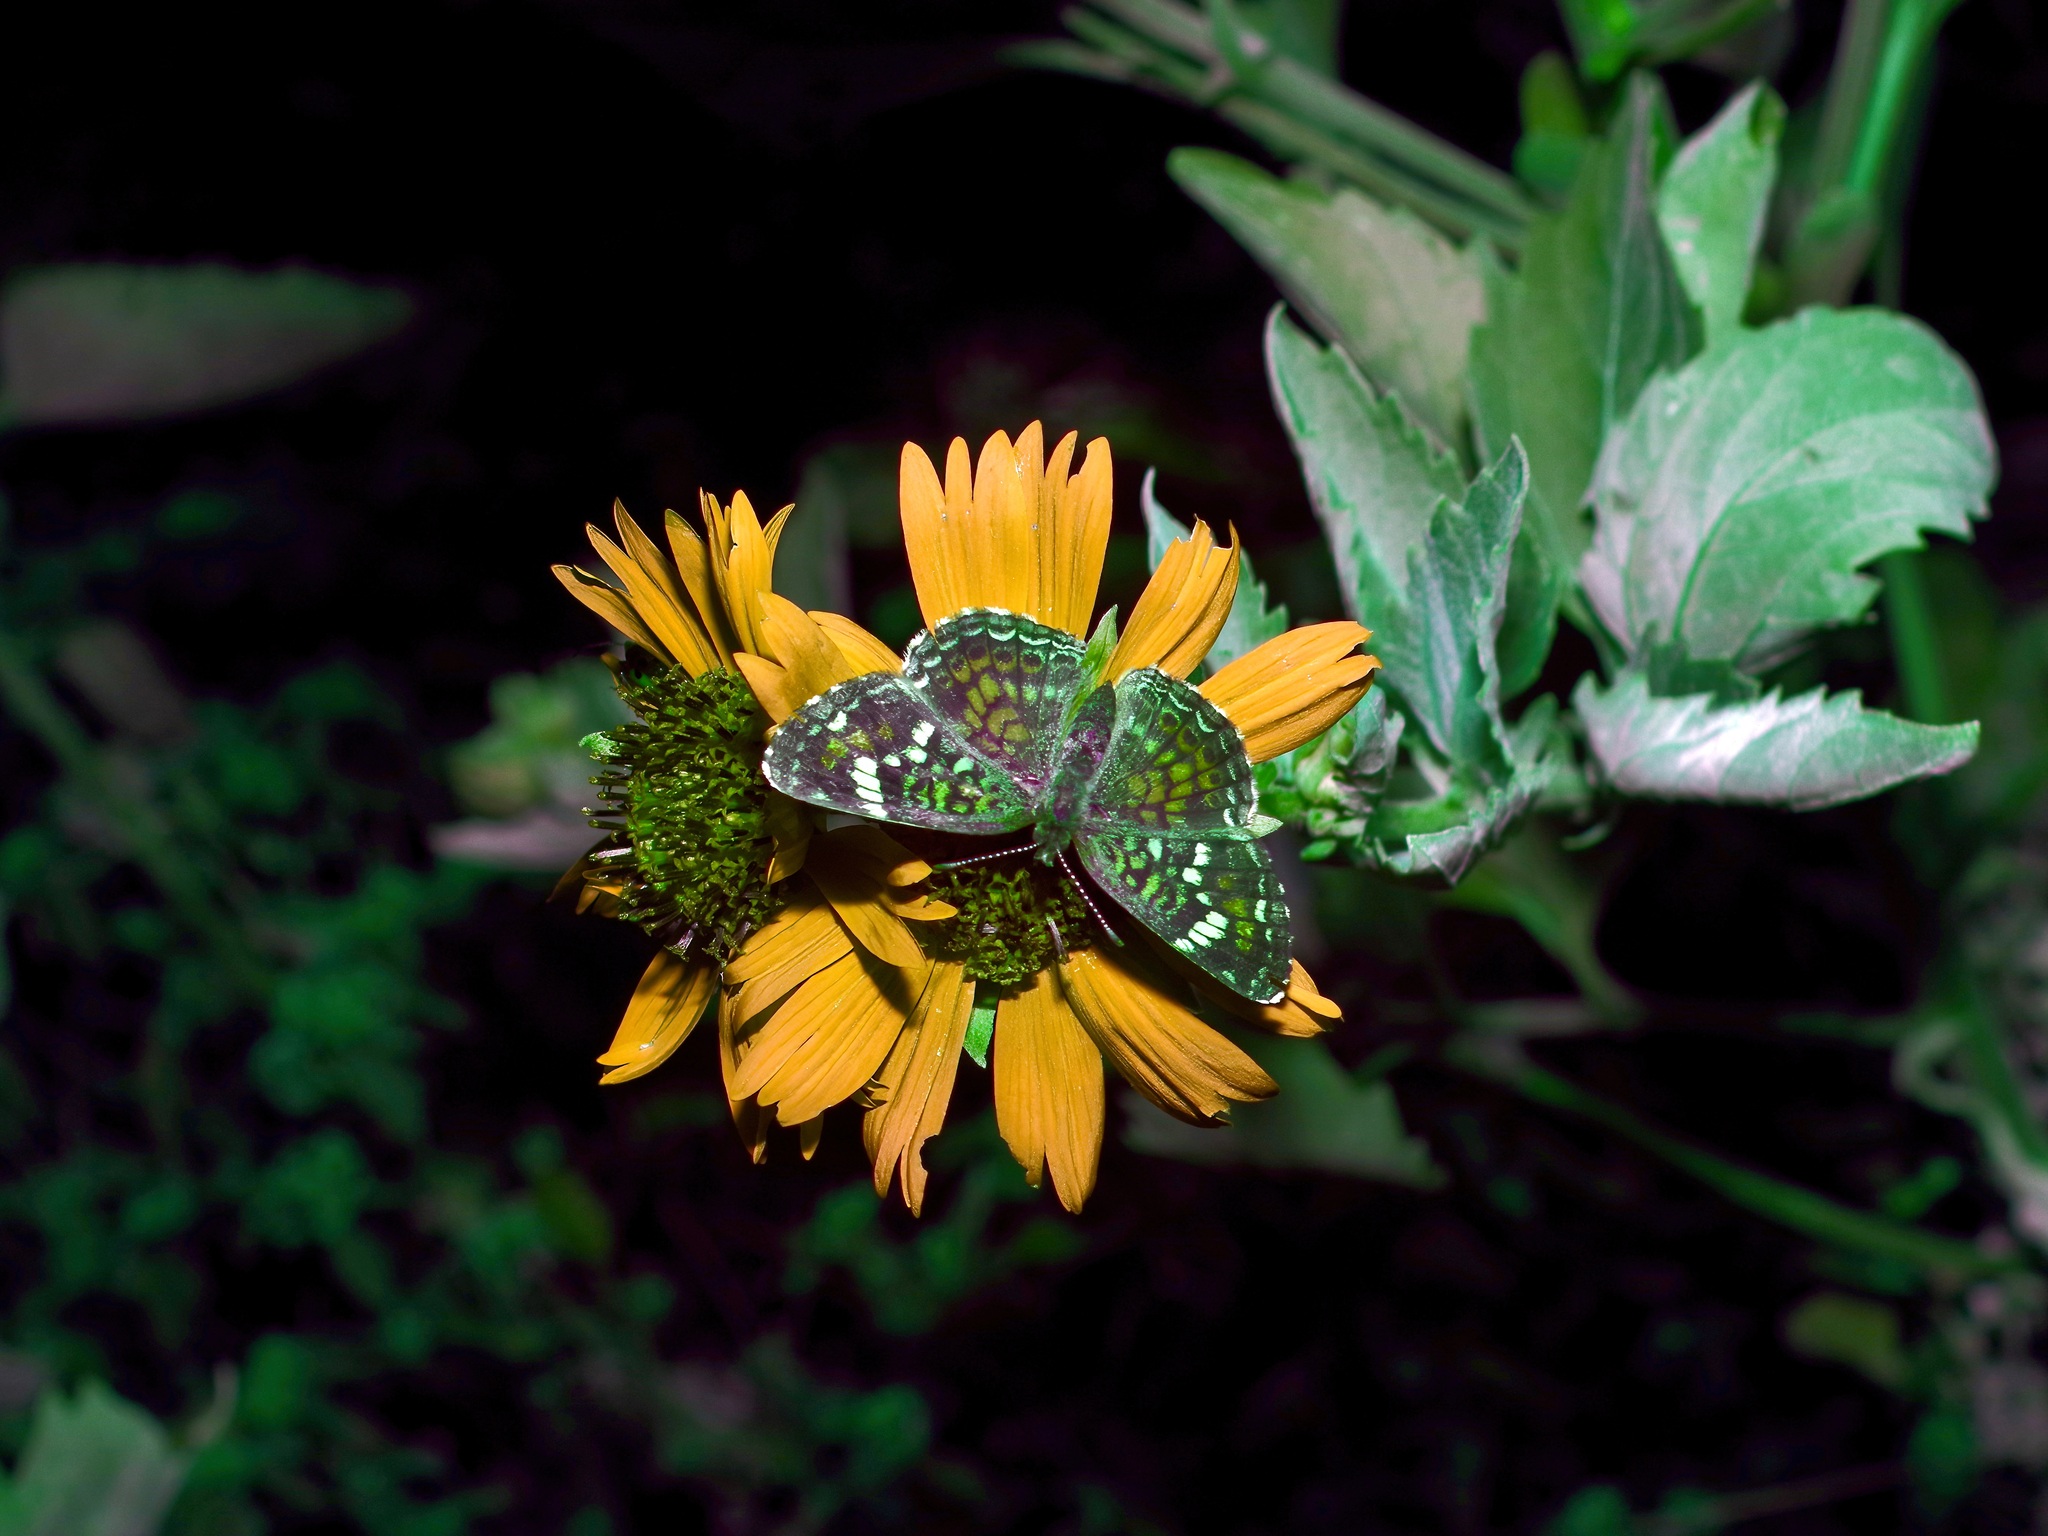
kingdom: Animalia
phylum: Arthropoda
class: Insecta
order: Lepidoptera
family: Nymphalidae
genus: Phyciodes
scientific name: Phyciodes phaon
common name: Phaon crescent
